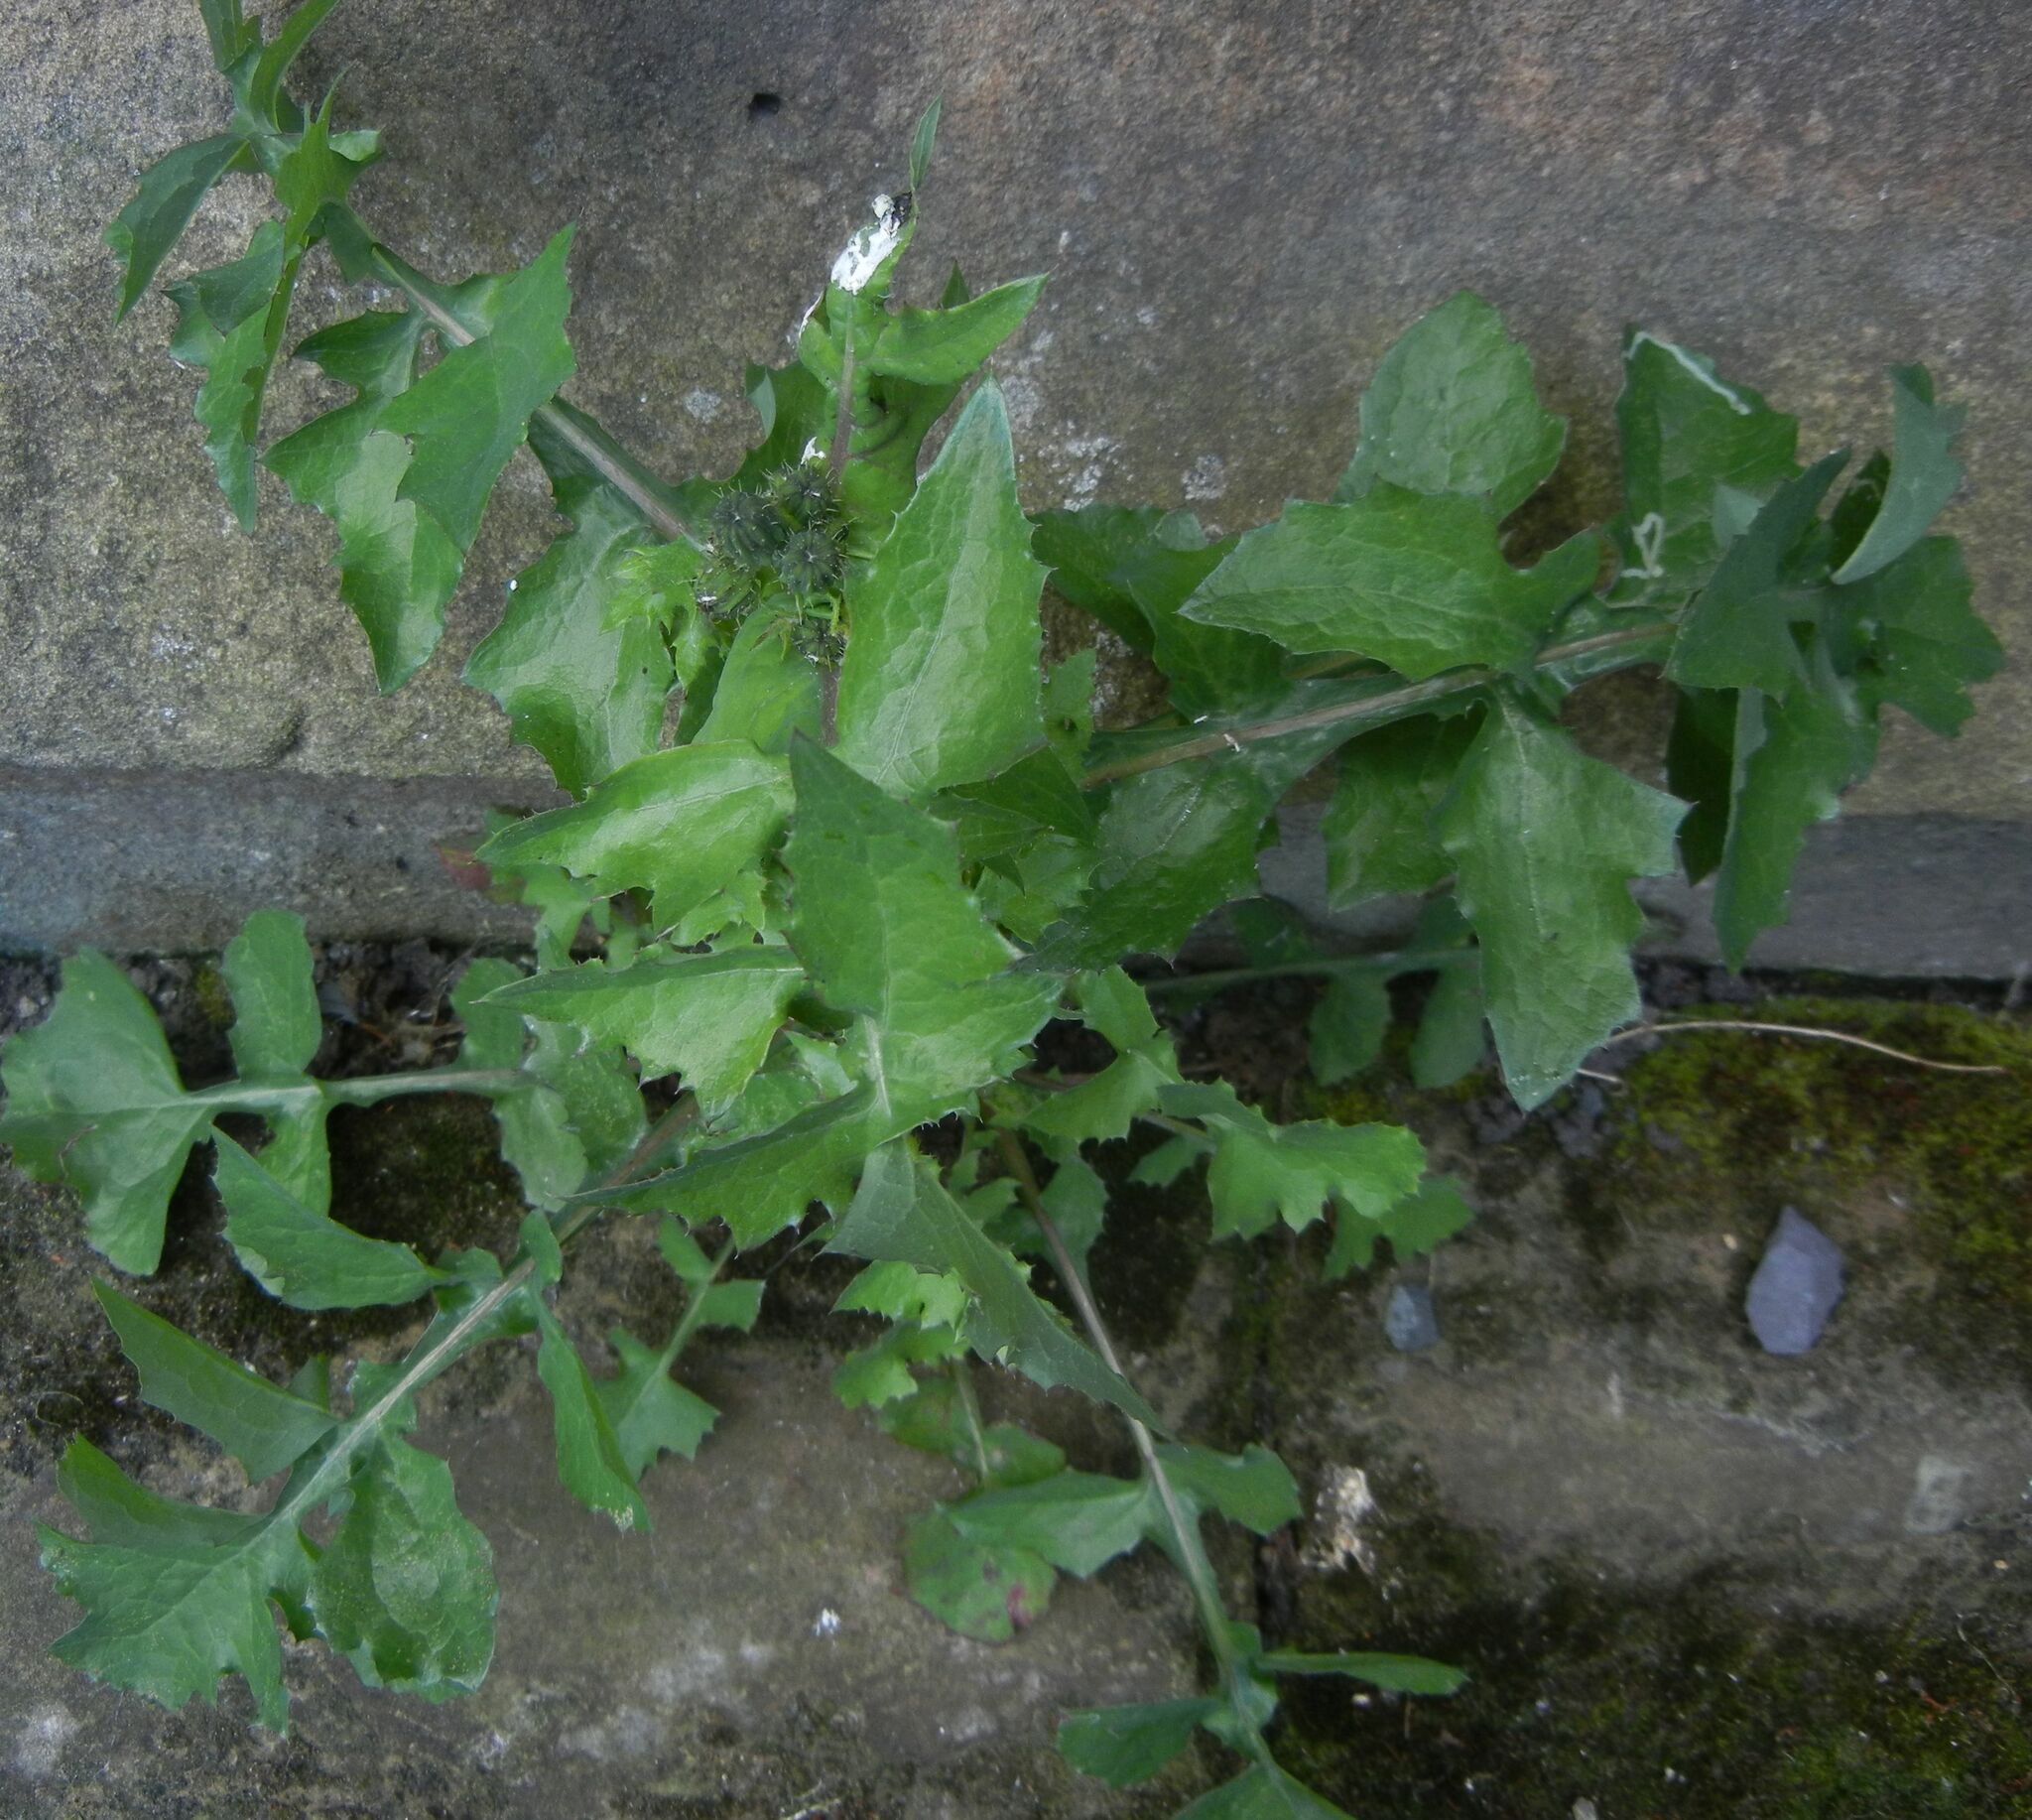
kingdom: Plantae
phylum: Tracheophyta
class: Magnoliopsida
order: Asterales
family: Asteraceae
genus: Sonchus
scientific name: Sonchus oleraceus
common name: Common sowthistle
